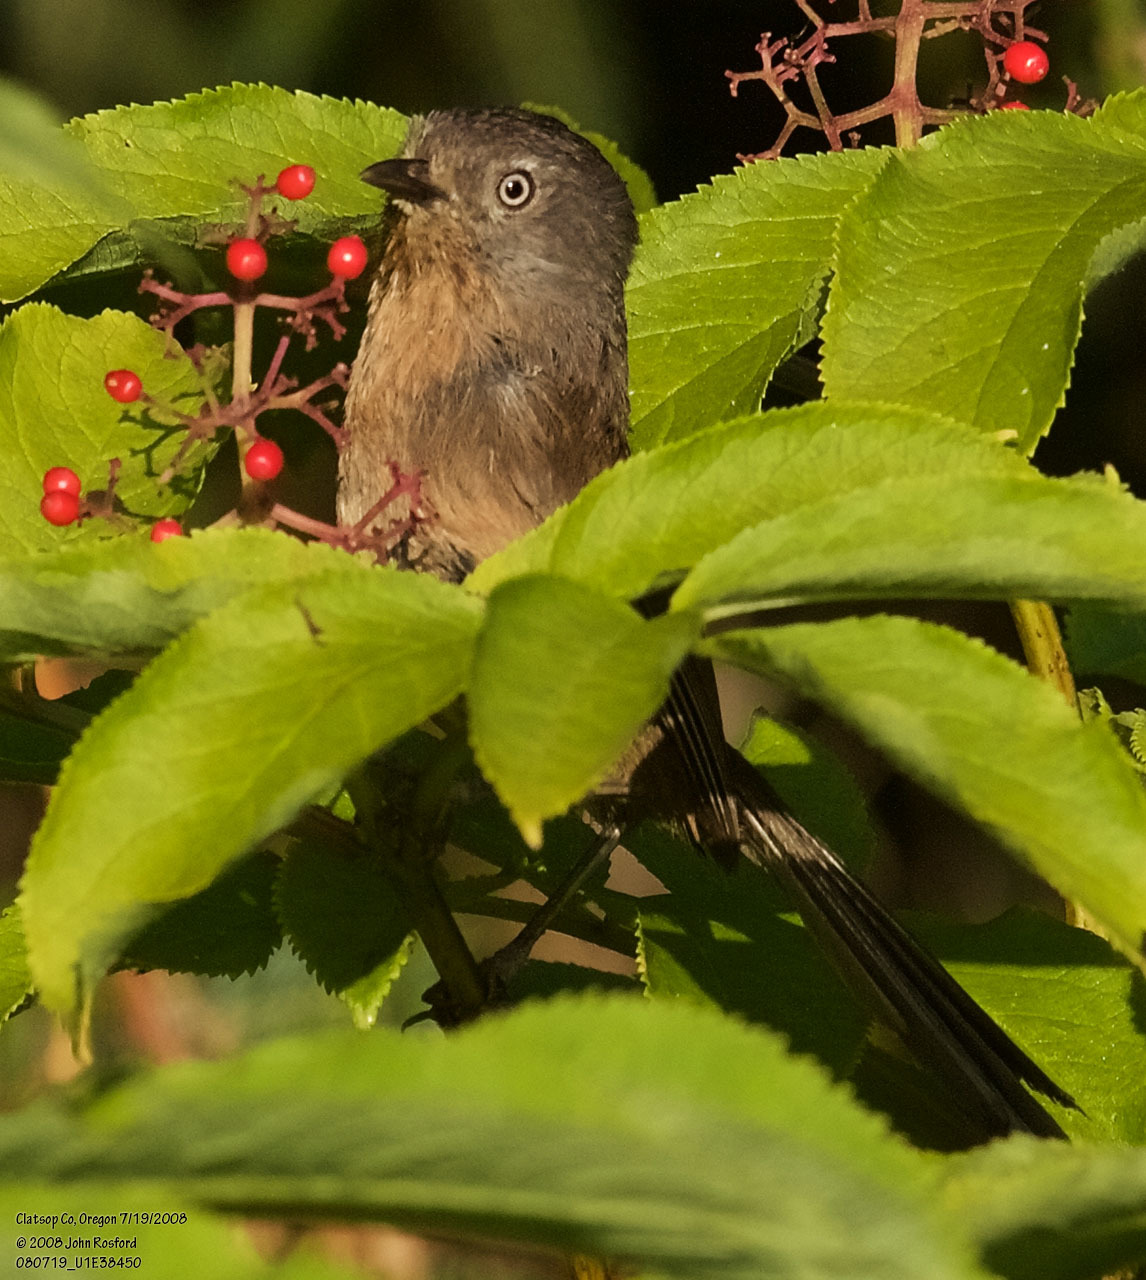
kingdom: Animalia
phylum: Chordata
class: Aves
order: Passeriformes
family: Sylviidae
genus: Chamaea
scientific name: Chamaea fasciata
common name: Wrentit
